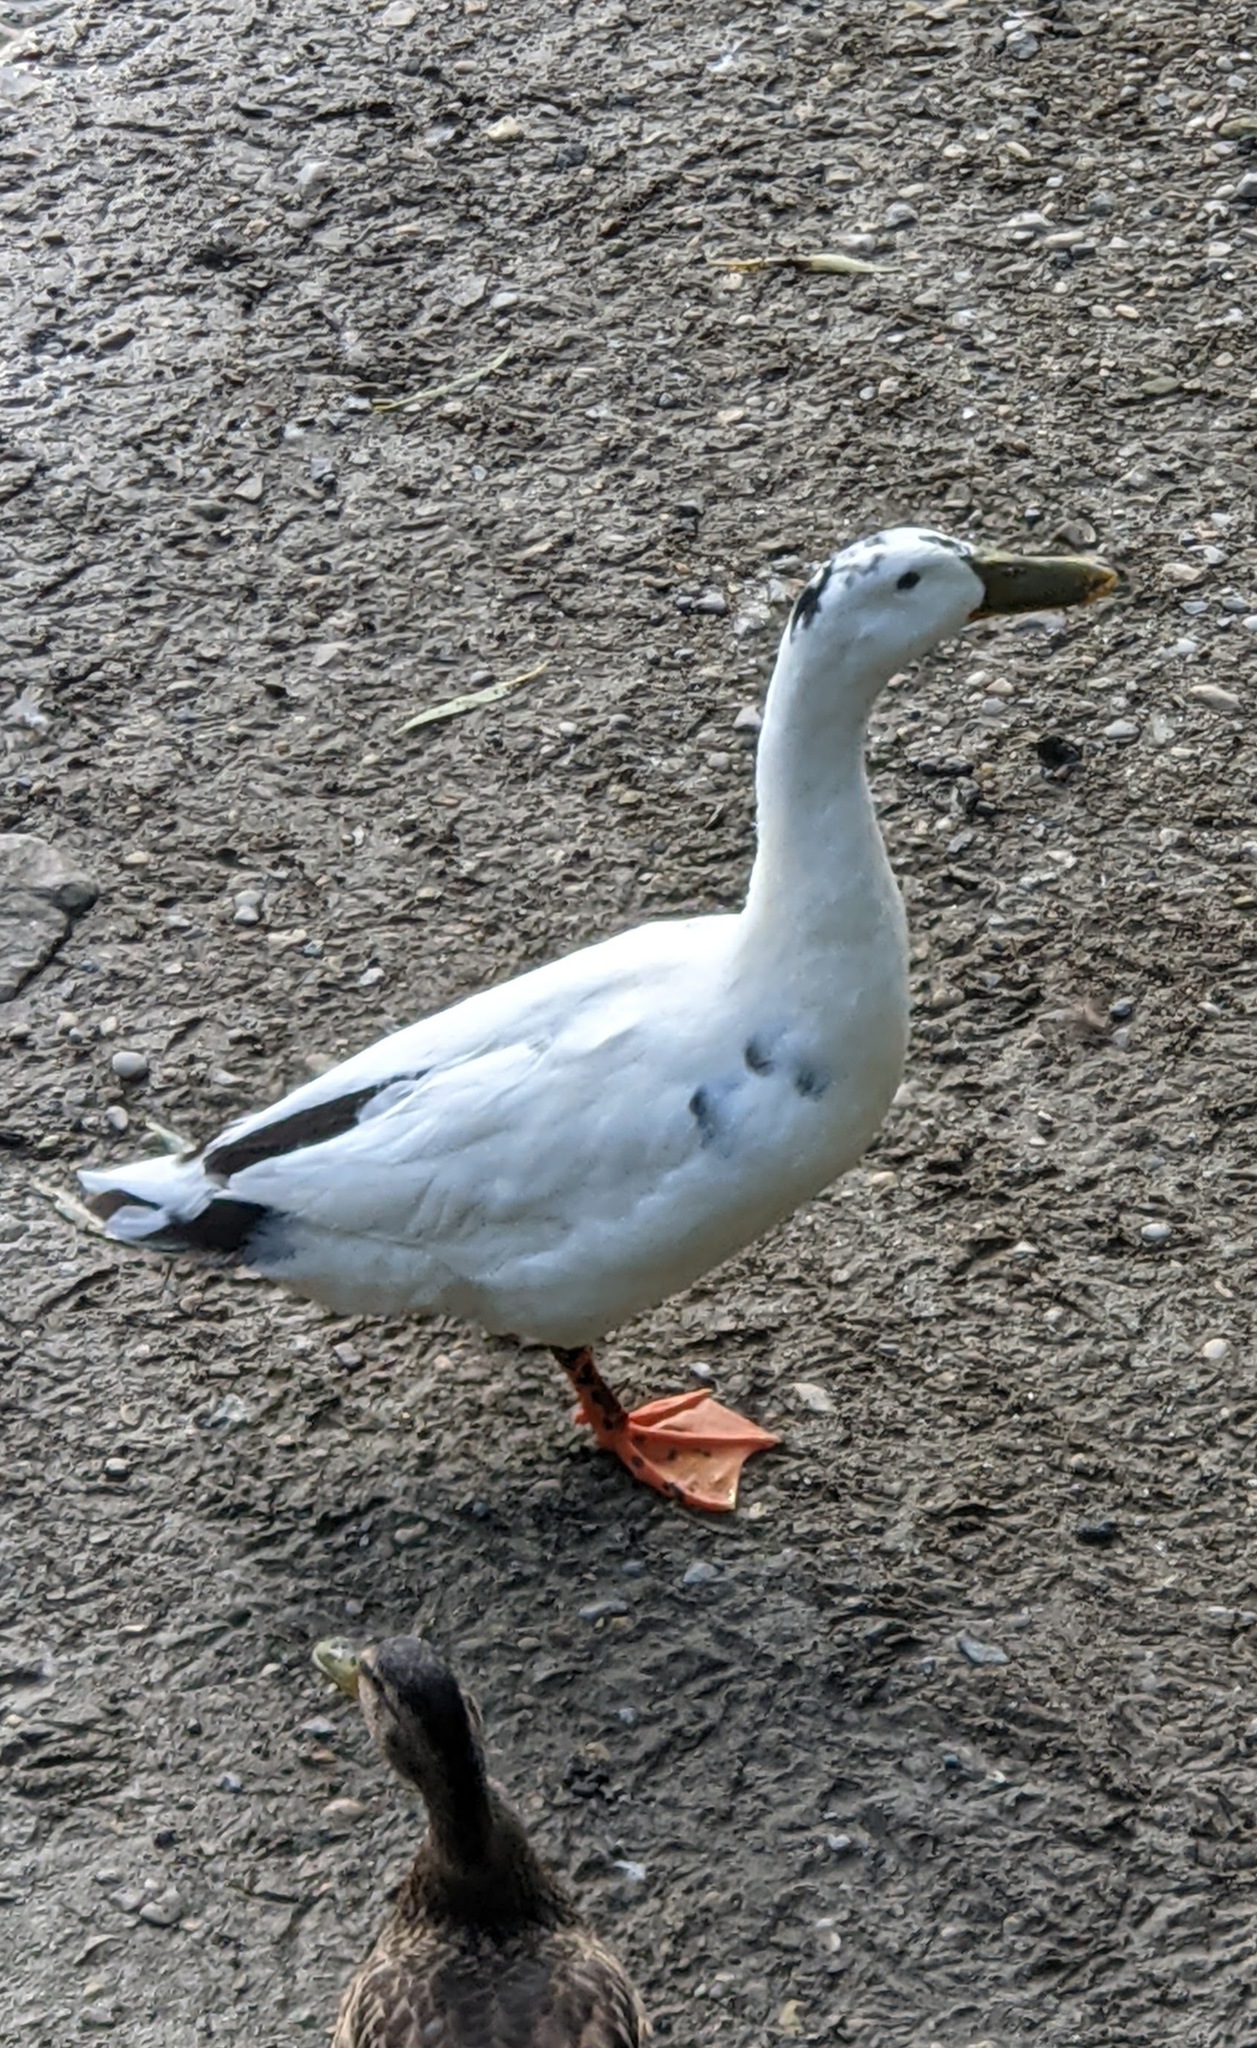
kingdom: Animalia
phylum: Chordata
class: Aves
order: Anseriformes
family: Anatidae
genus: Anas
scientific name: Anas platyrhynchos
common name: Mallard
